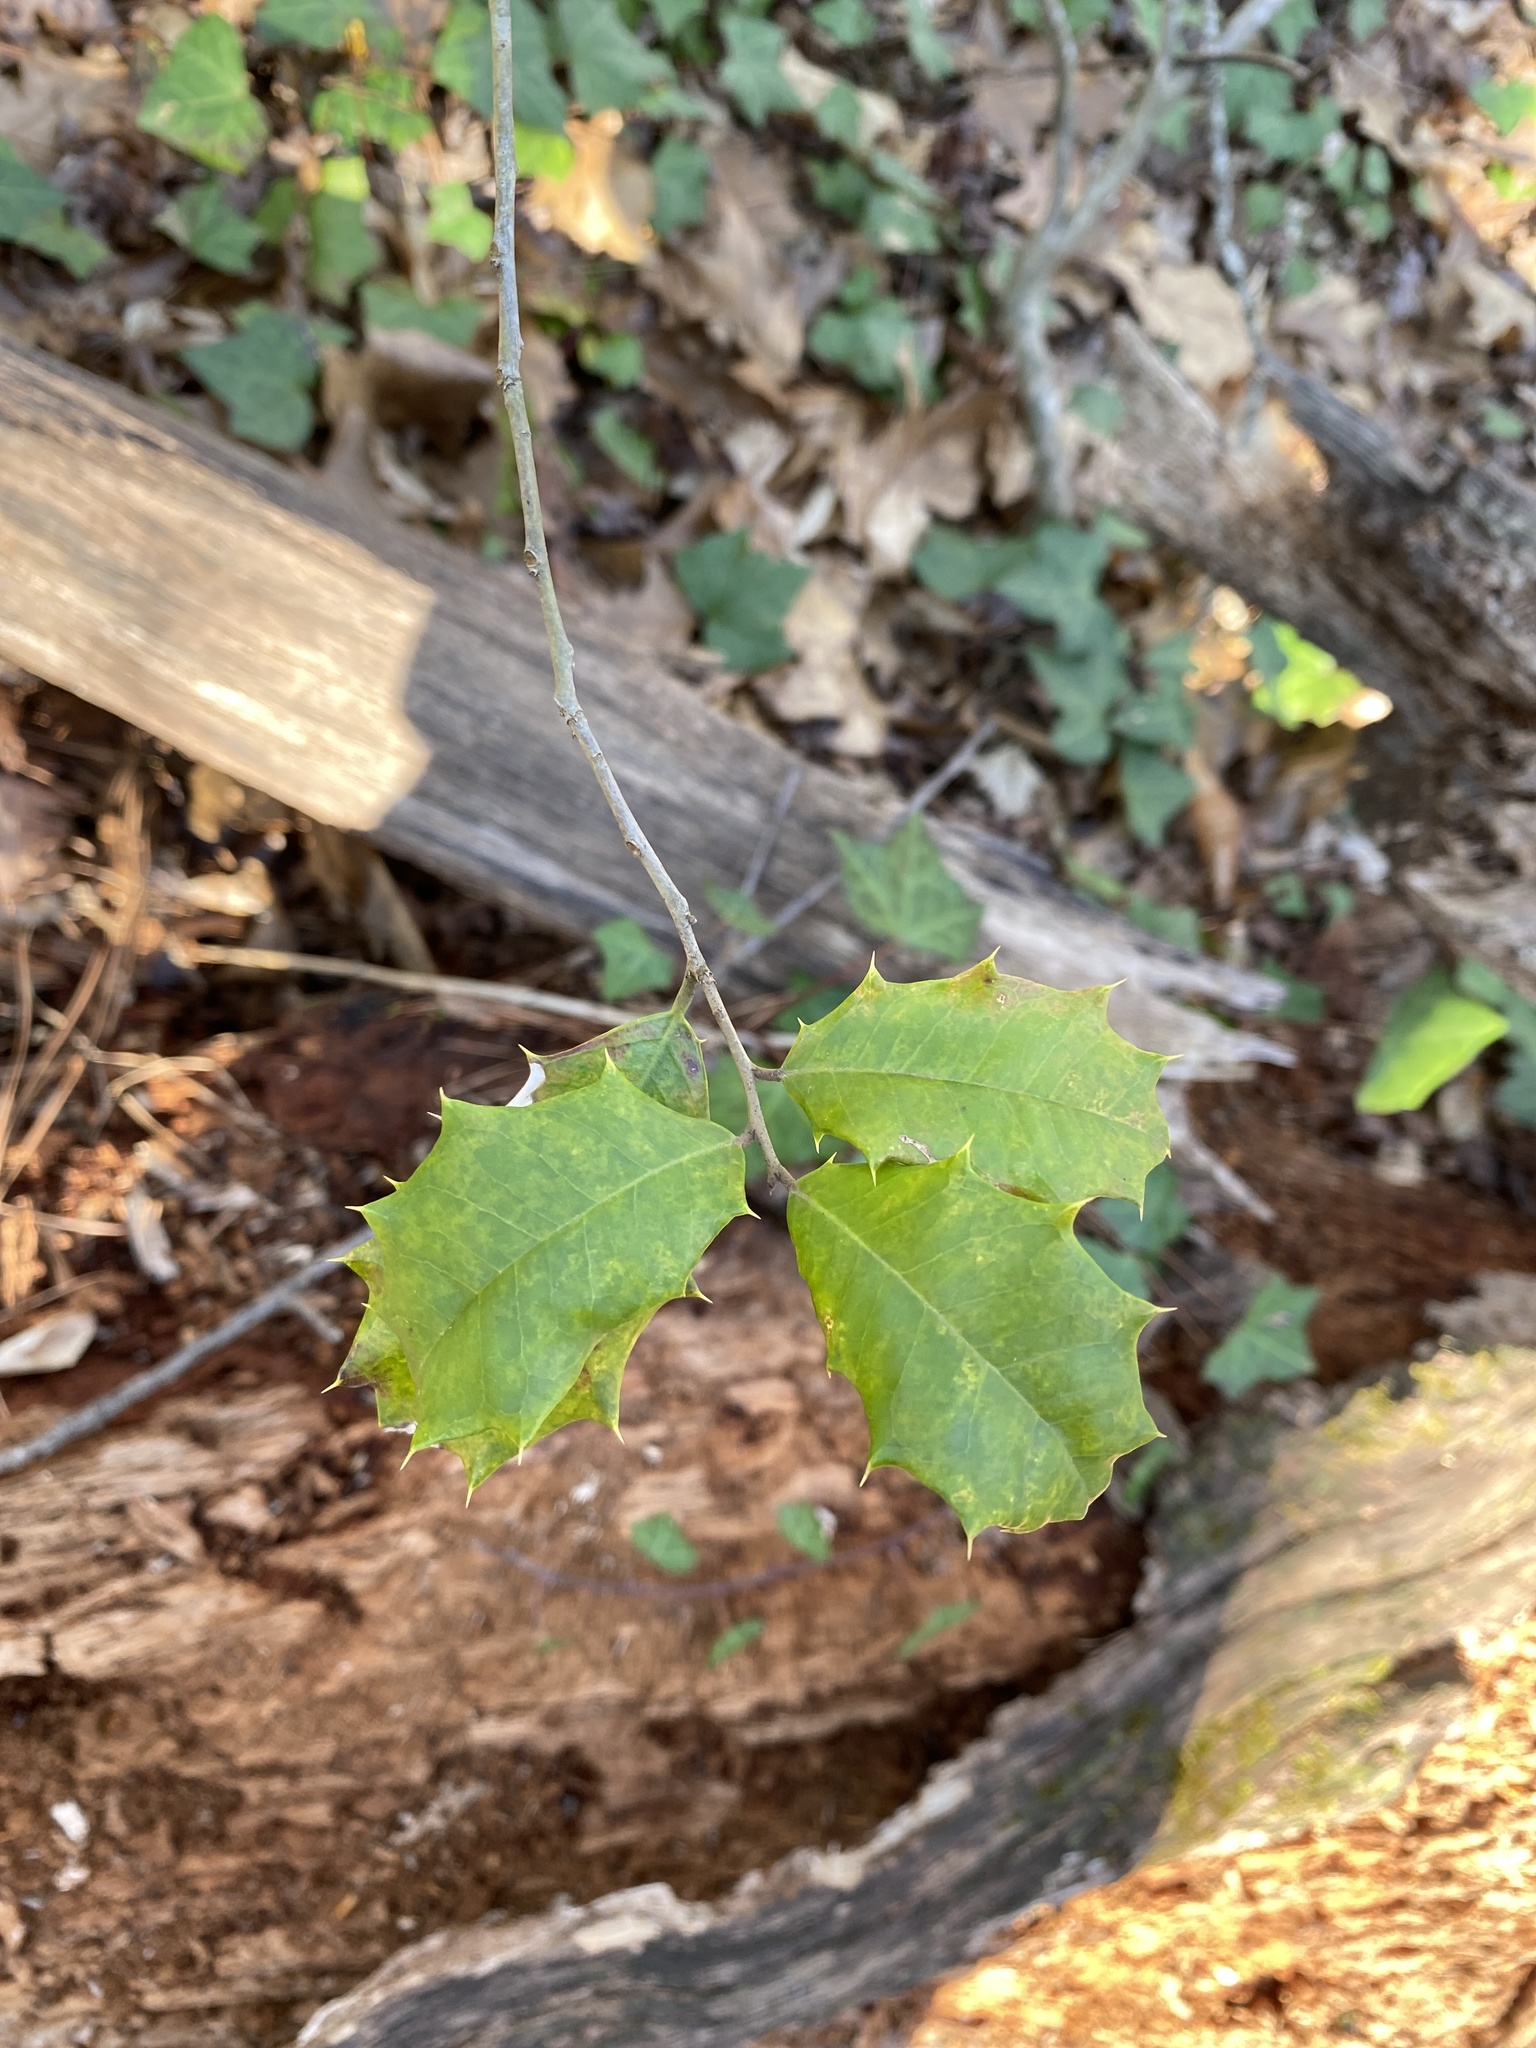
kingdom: Plantae
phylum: Tracheophyta
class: Magnoliopsida
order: Aquifoliales
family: Aquifoliaceae
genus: Ilex
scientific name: Ilex opaca
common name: American holly
